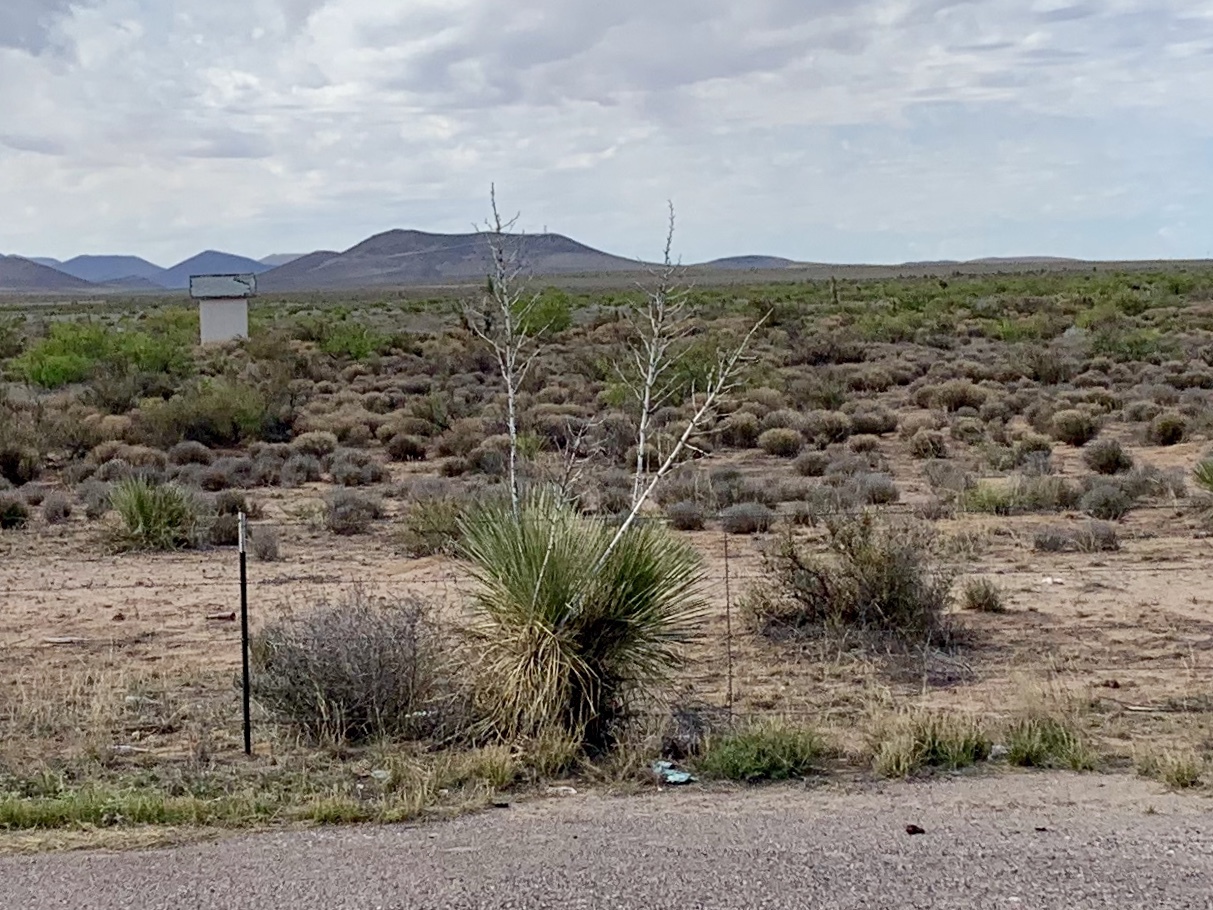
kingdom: Plantae
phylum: Tracheophyta
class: Liliopsida
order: Asparagales
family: Asparagaceae
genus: Yucca
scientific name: Yucca elata
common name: Palmella
